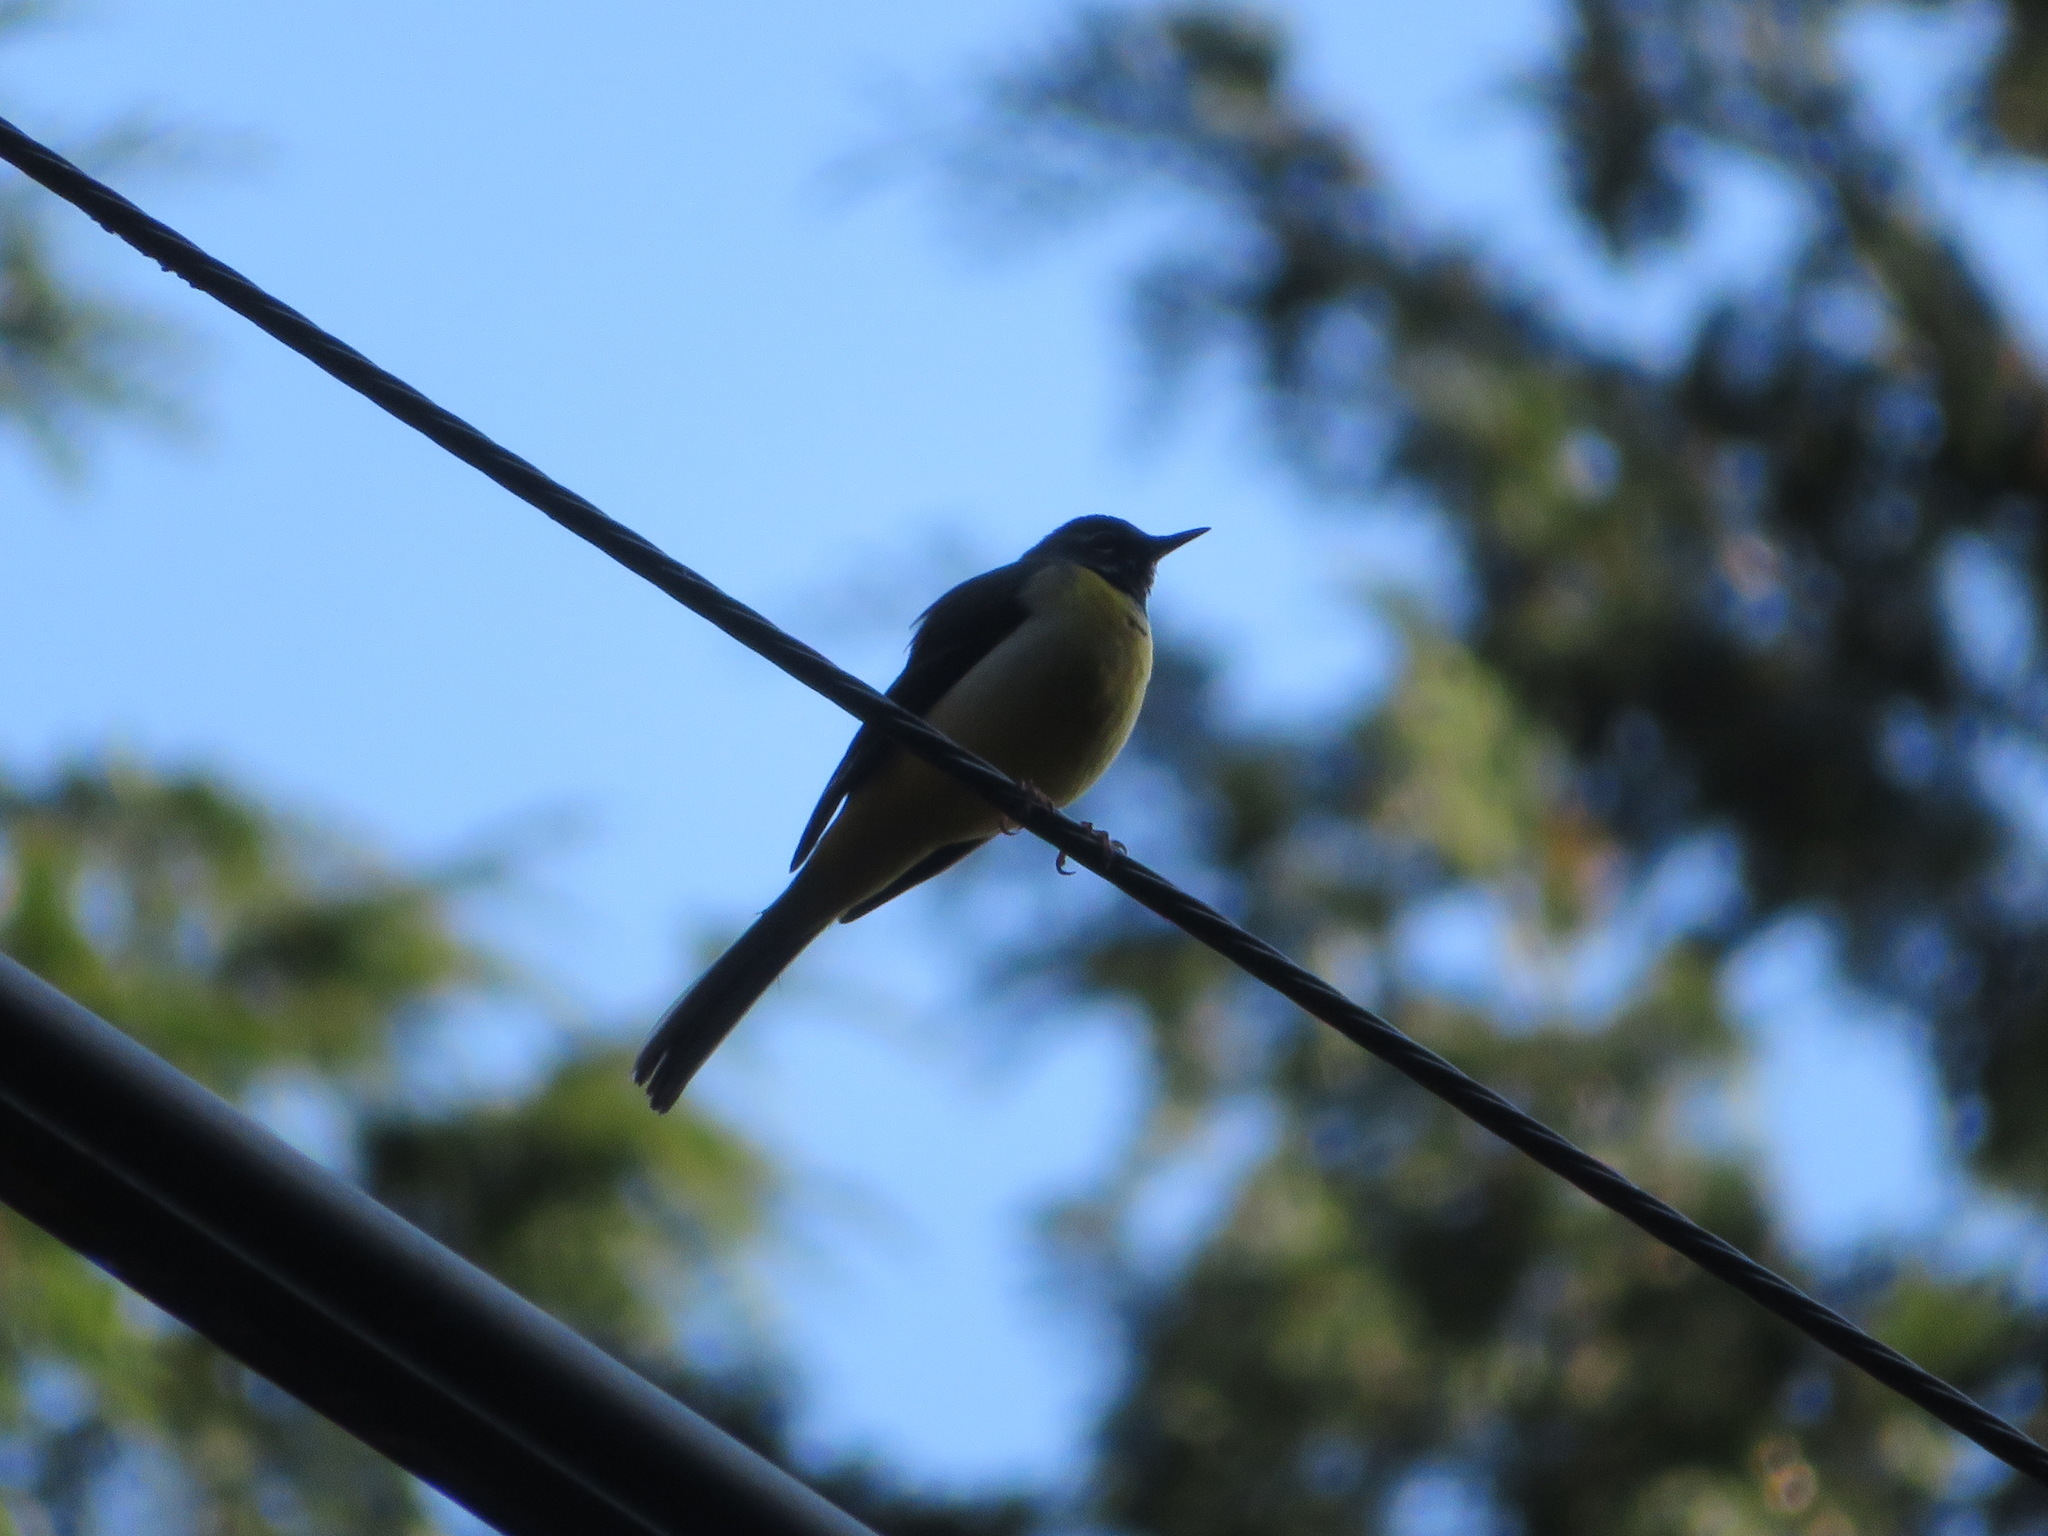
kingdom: Animalia
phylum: Chordata
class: Aves
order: Passeriformes
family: Motacillidae
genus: Motacilla
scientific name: Motacilla cinerea
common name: Grey wagtail
